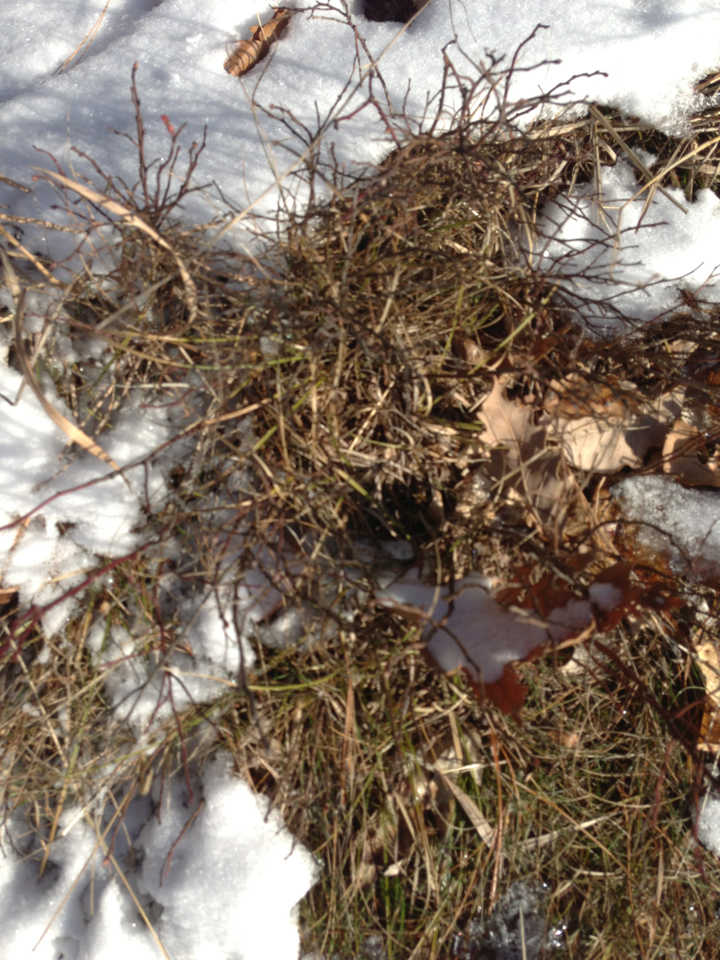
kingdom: Plantae
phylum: Tracheophyta
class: Magnoliopsida
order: Ericales
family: Ericaceae
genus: Vaccinium
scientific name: Vaccinium angustifolium
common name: Early lowbush blueberry
